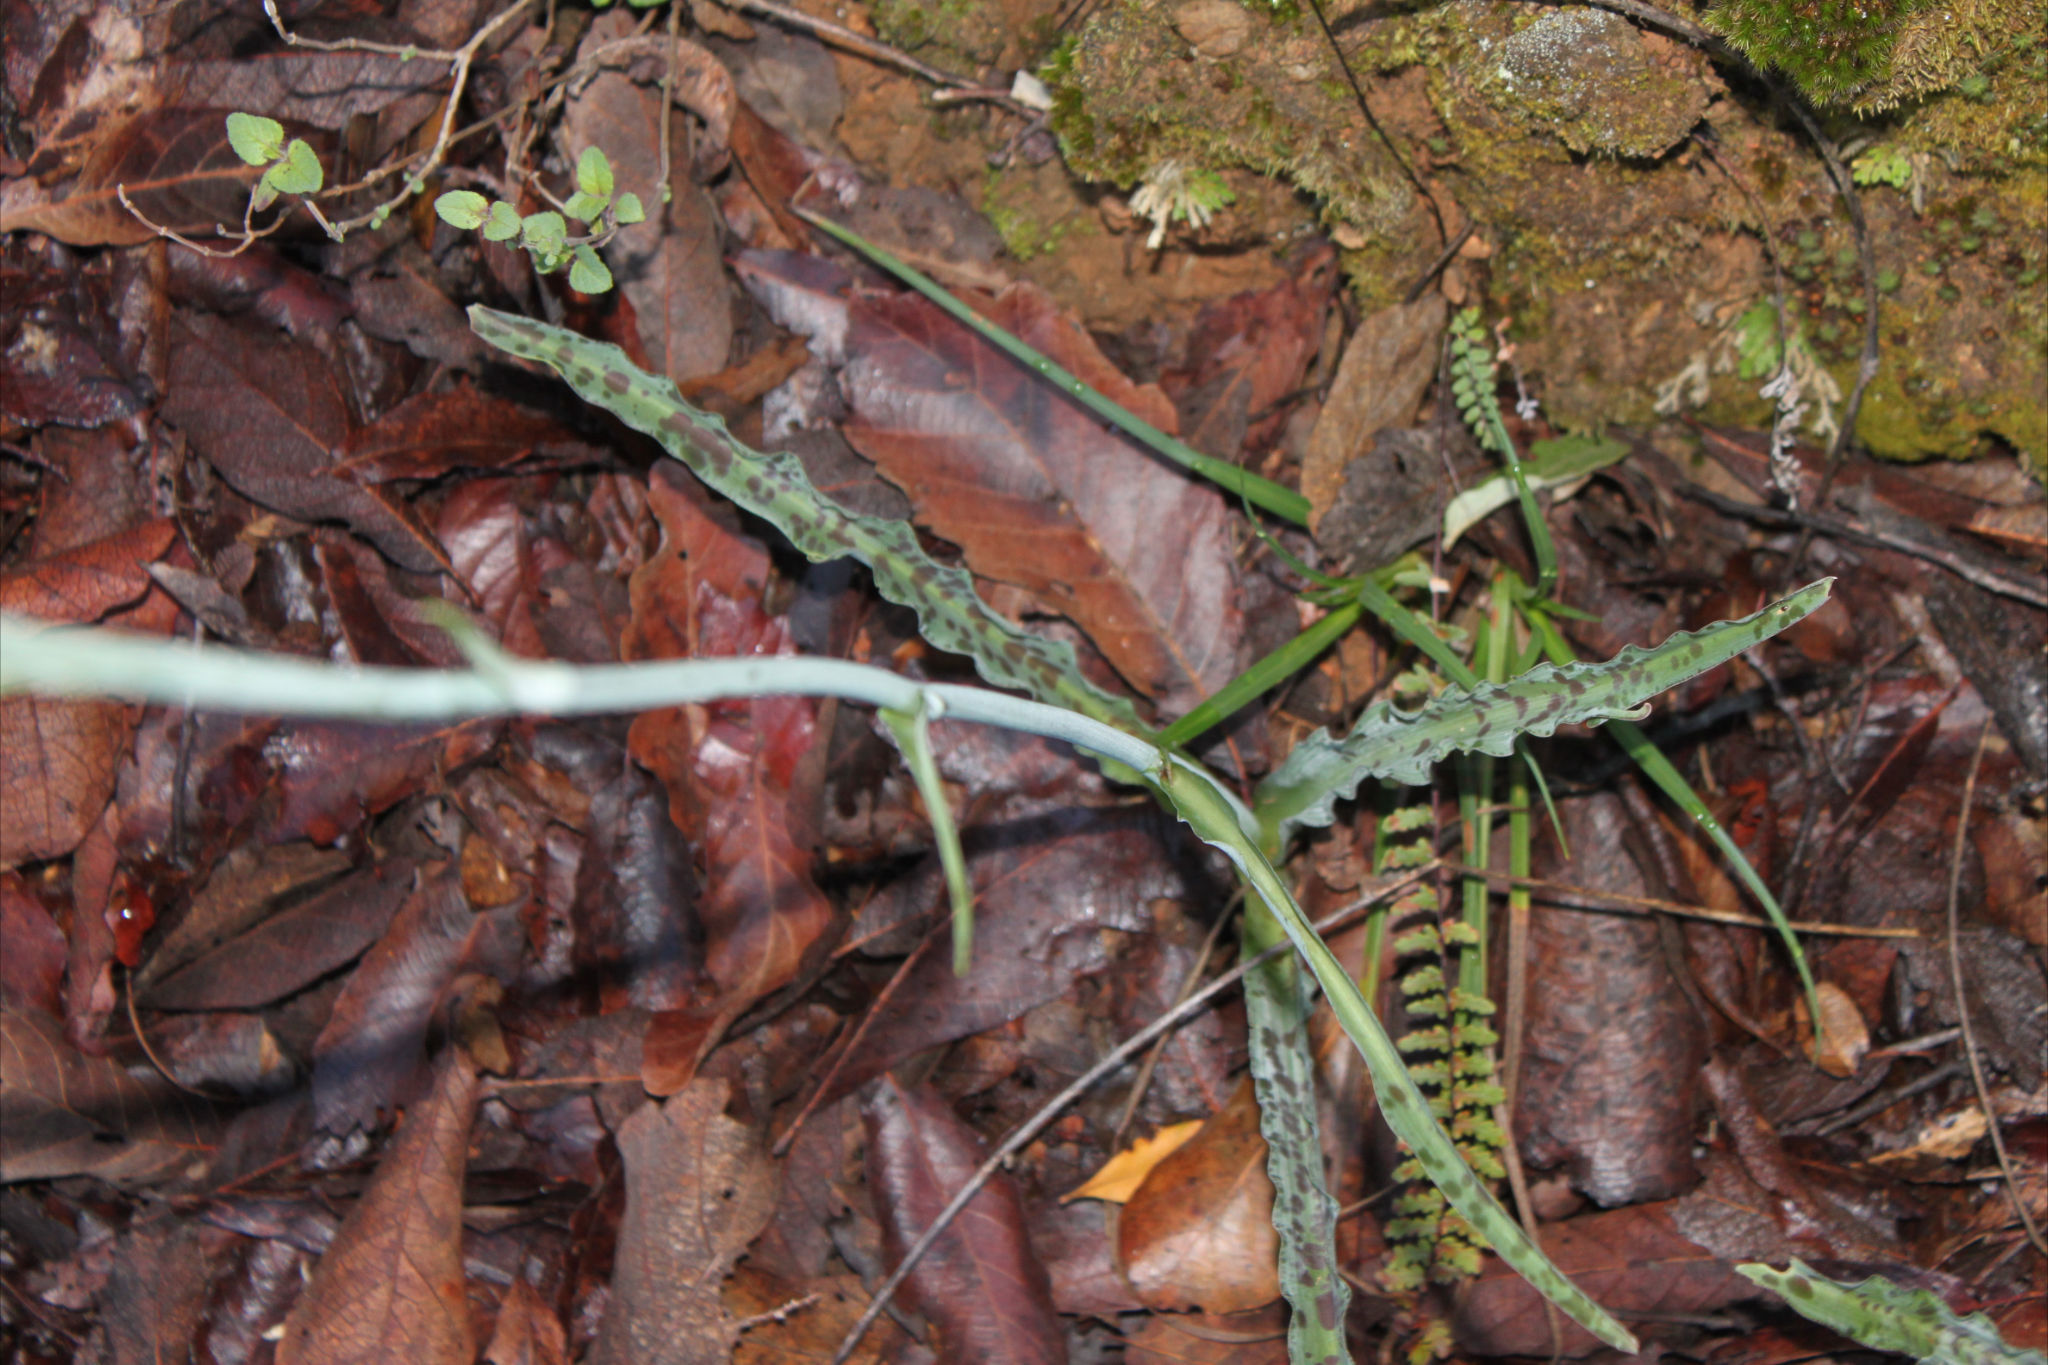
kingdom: Plantae
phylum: Tracheophyta
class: Liliopsida
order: Asparagales
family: Asparagaceae
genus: Agave
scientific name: Agave debilis
